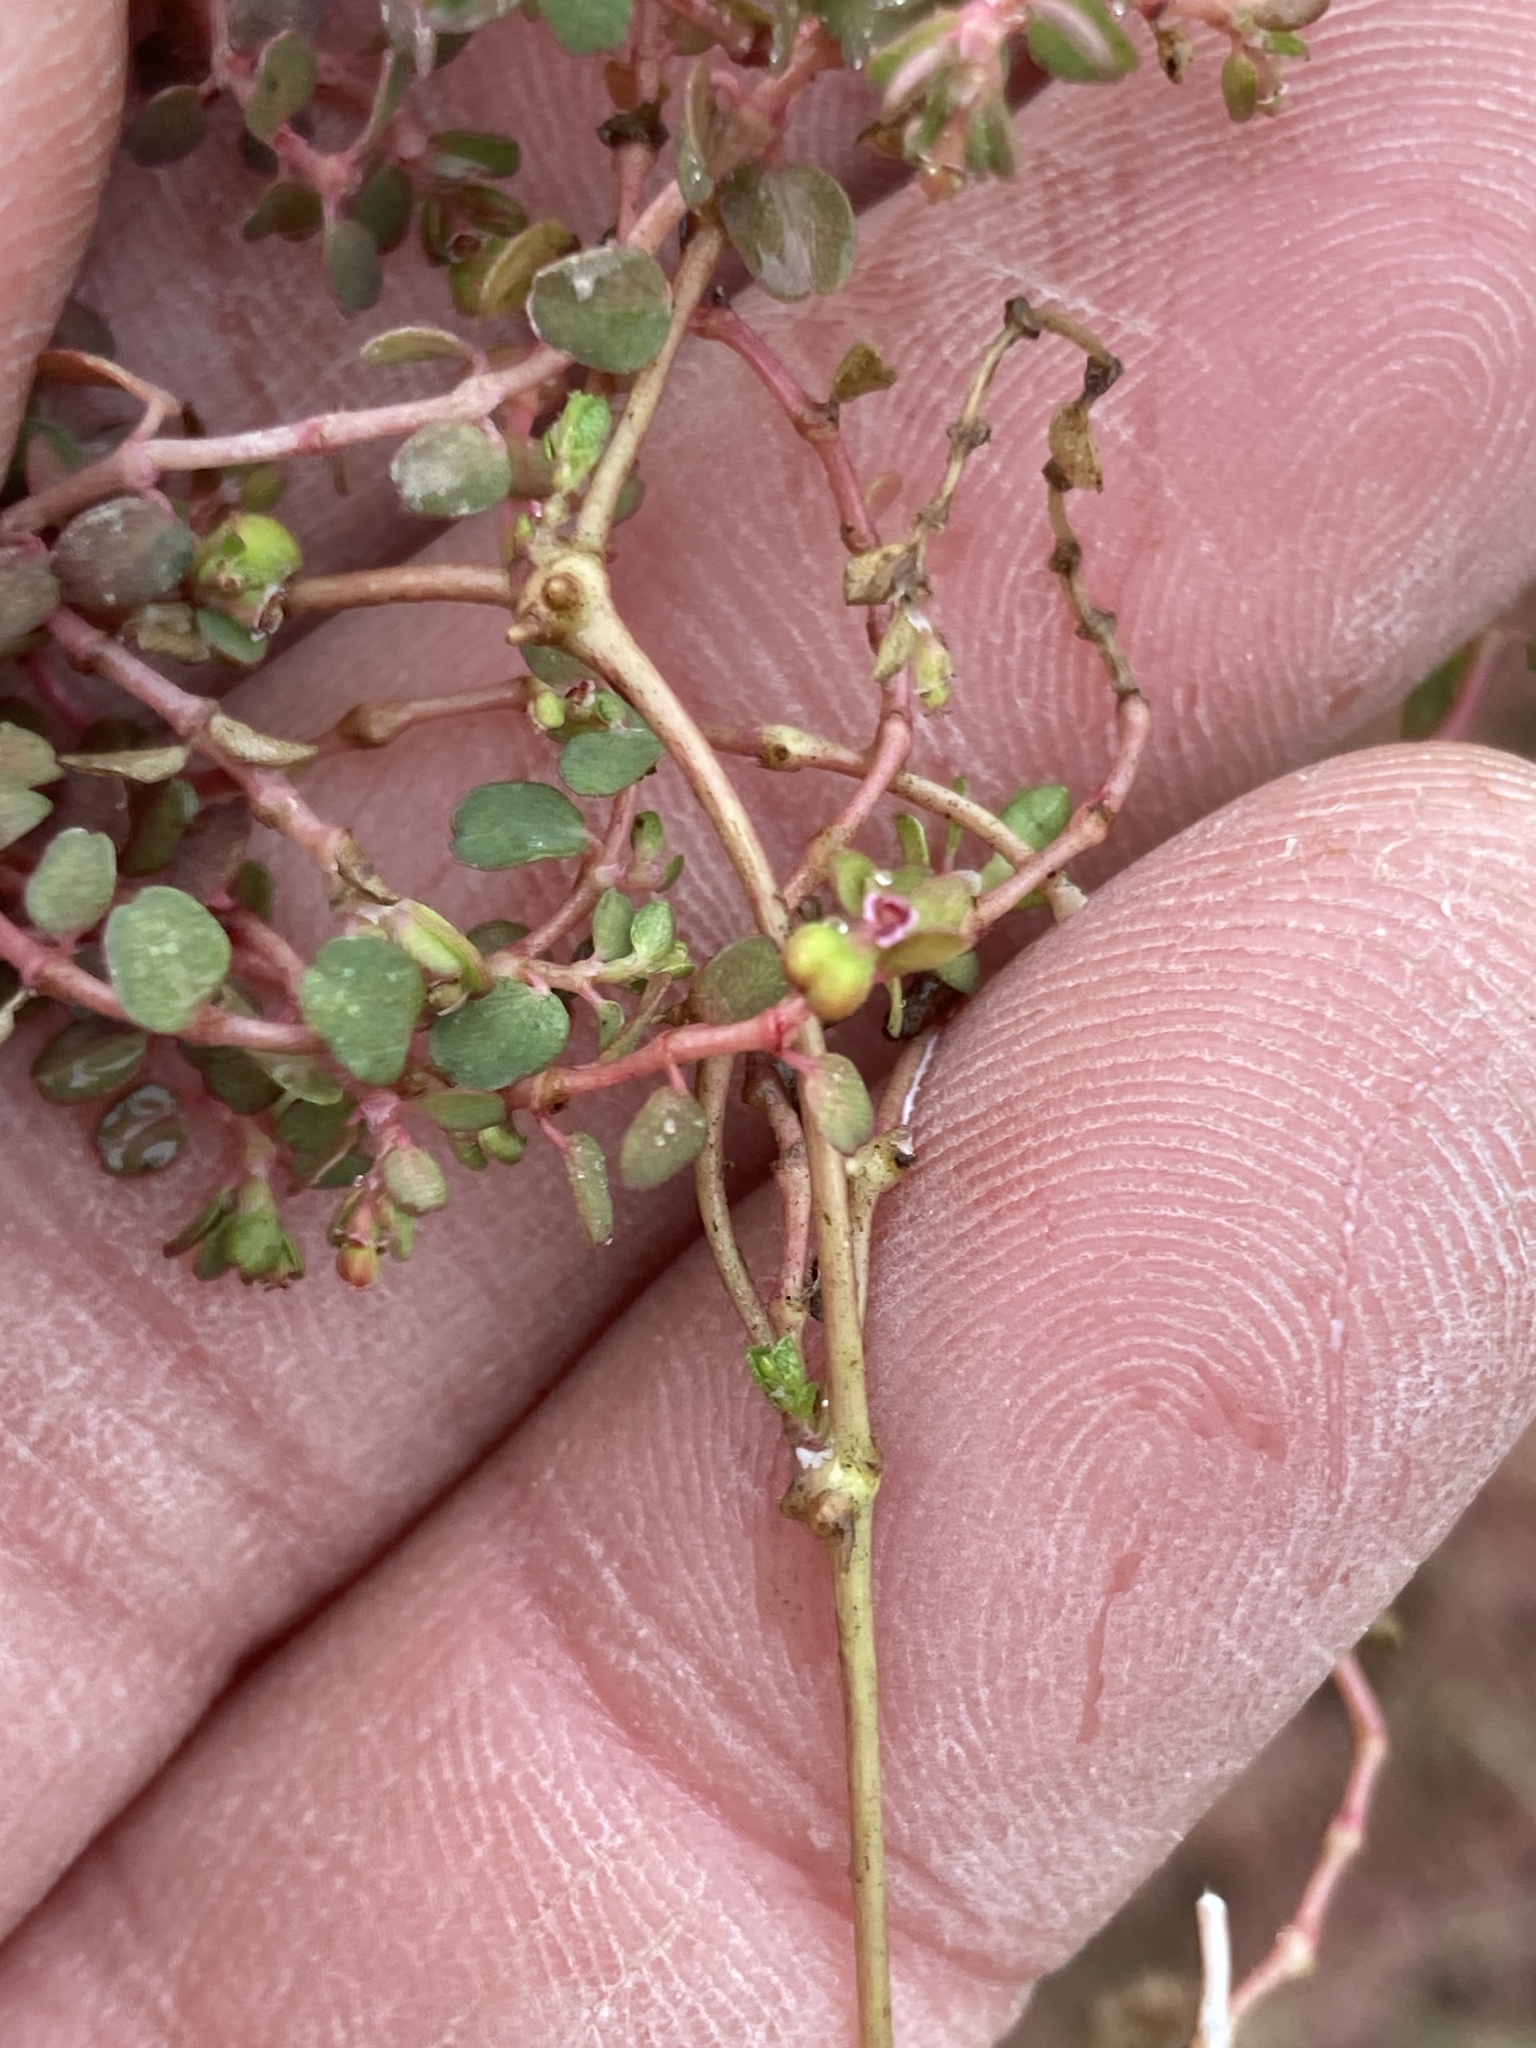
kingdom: Plantae
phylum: Tracheophyta
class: Magnoliopsida
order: Malpighiales
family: Euphorbiaceae
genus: Euphorbia
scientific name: Euphorbia serpens
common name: Matted sandmat
